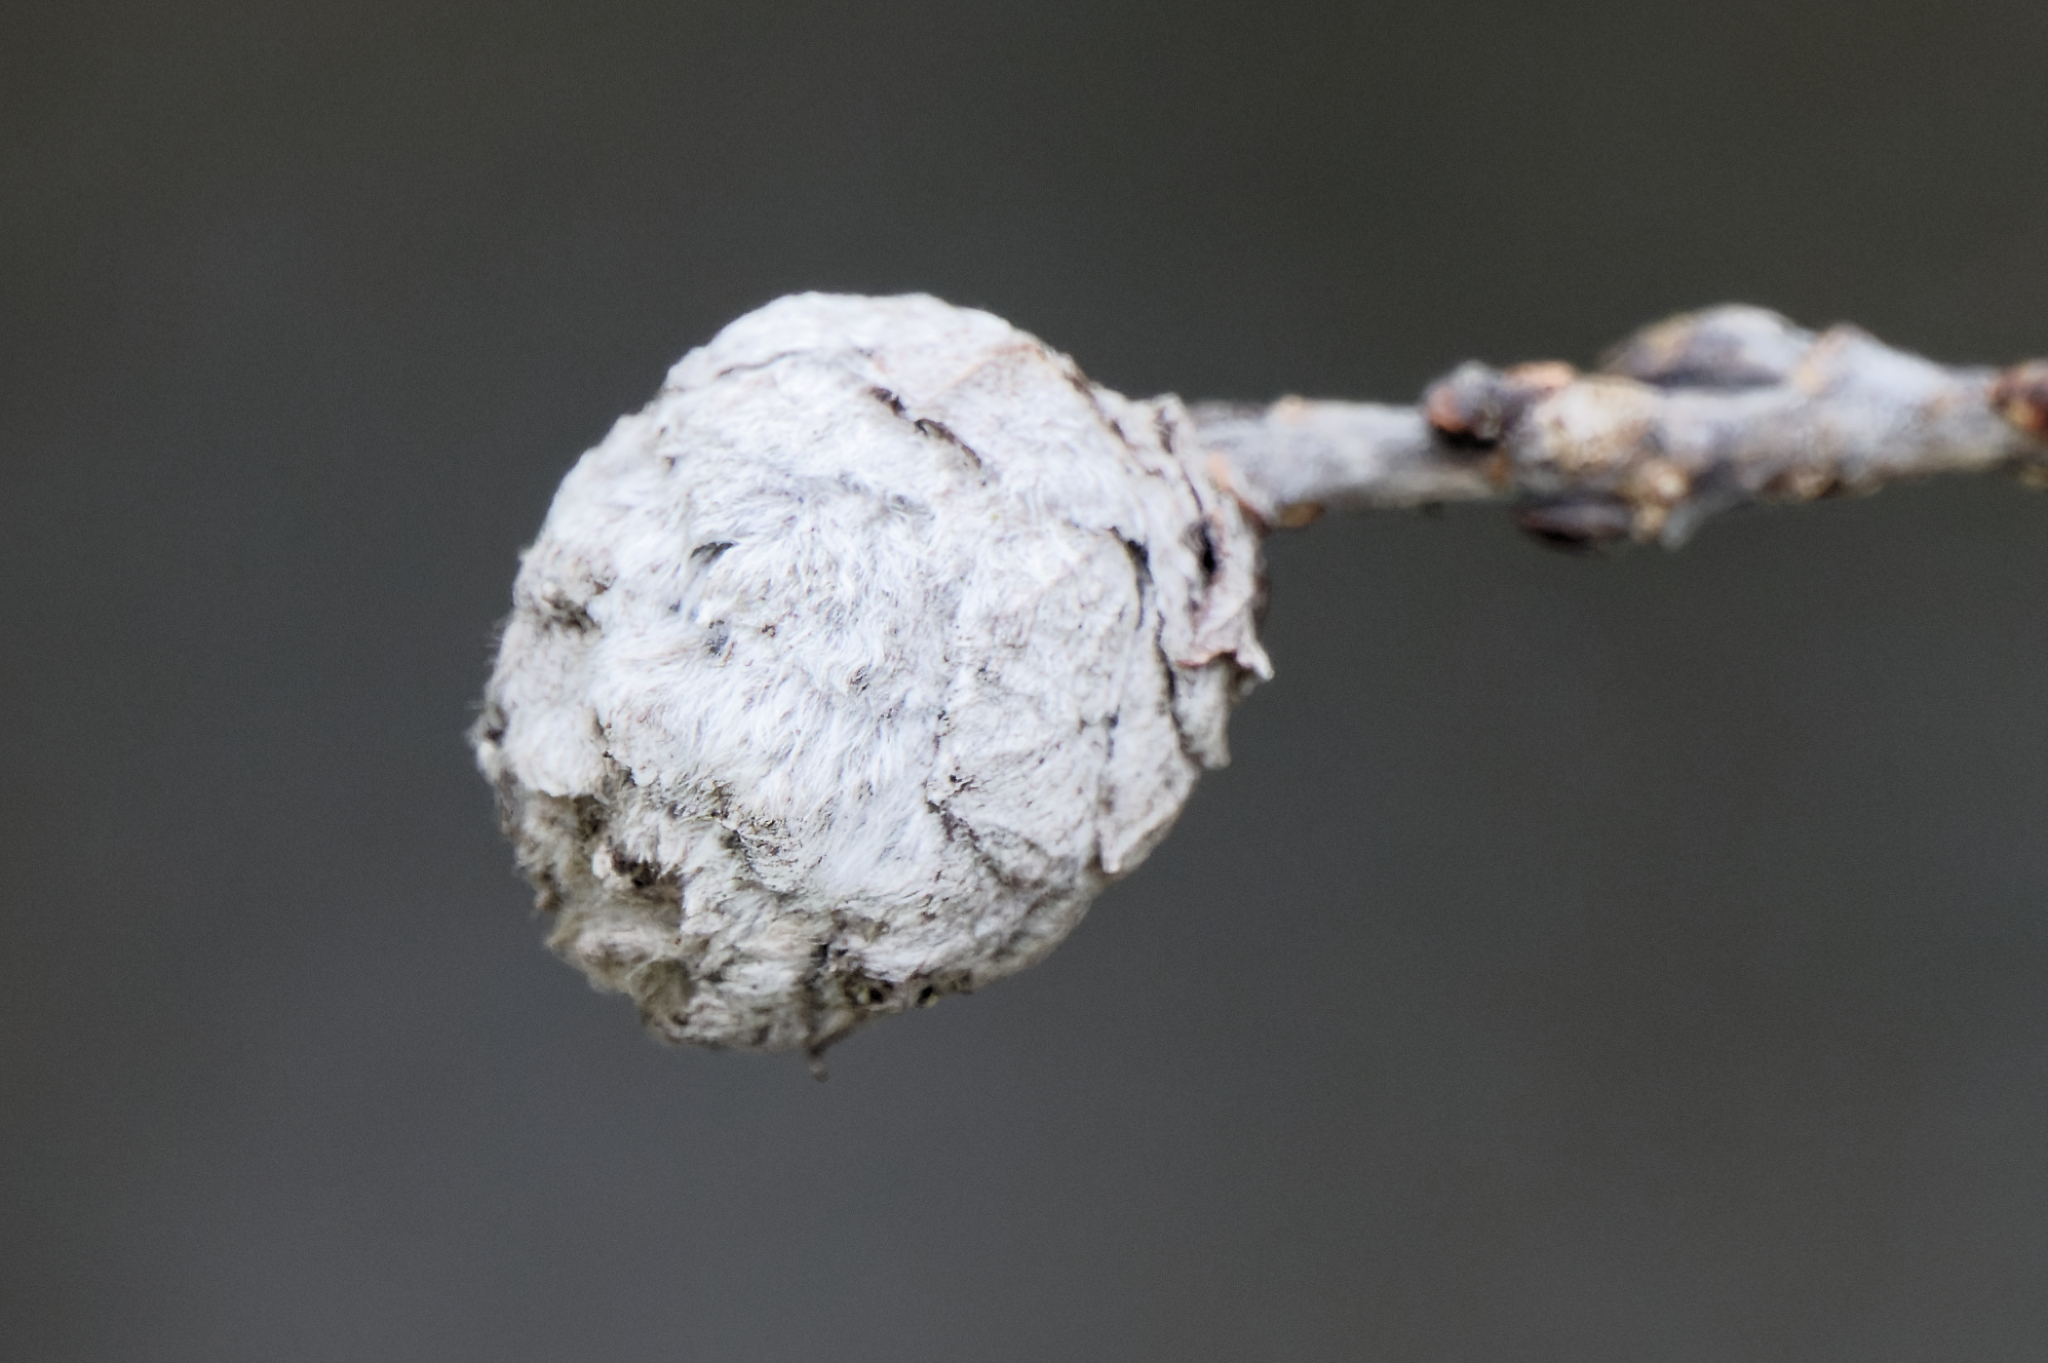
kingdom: Animalia
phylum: Arthropoda
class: Insecta
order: Diptera
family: Cecidomyiidae
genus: Rabdophaga
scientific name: Rabdophaga strobiloides
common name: Willow pinecone gall midge
